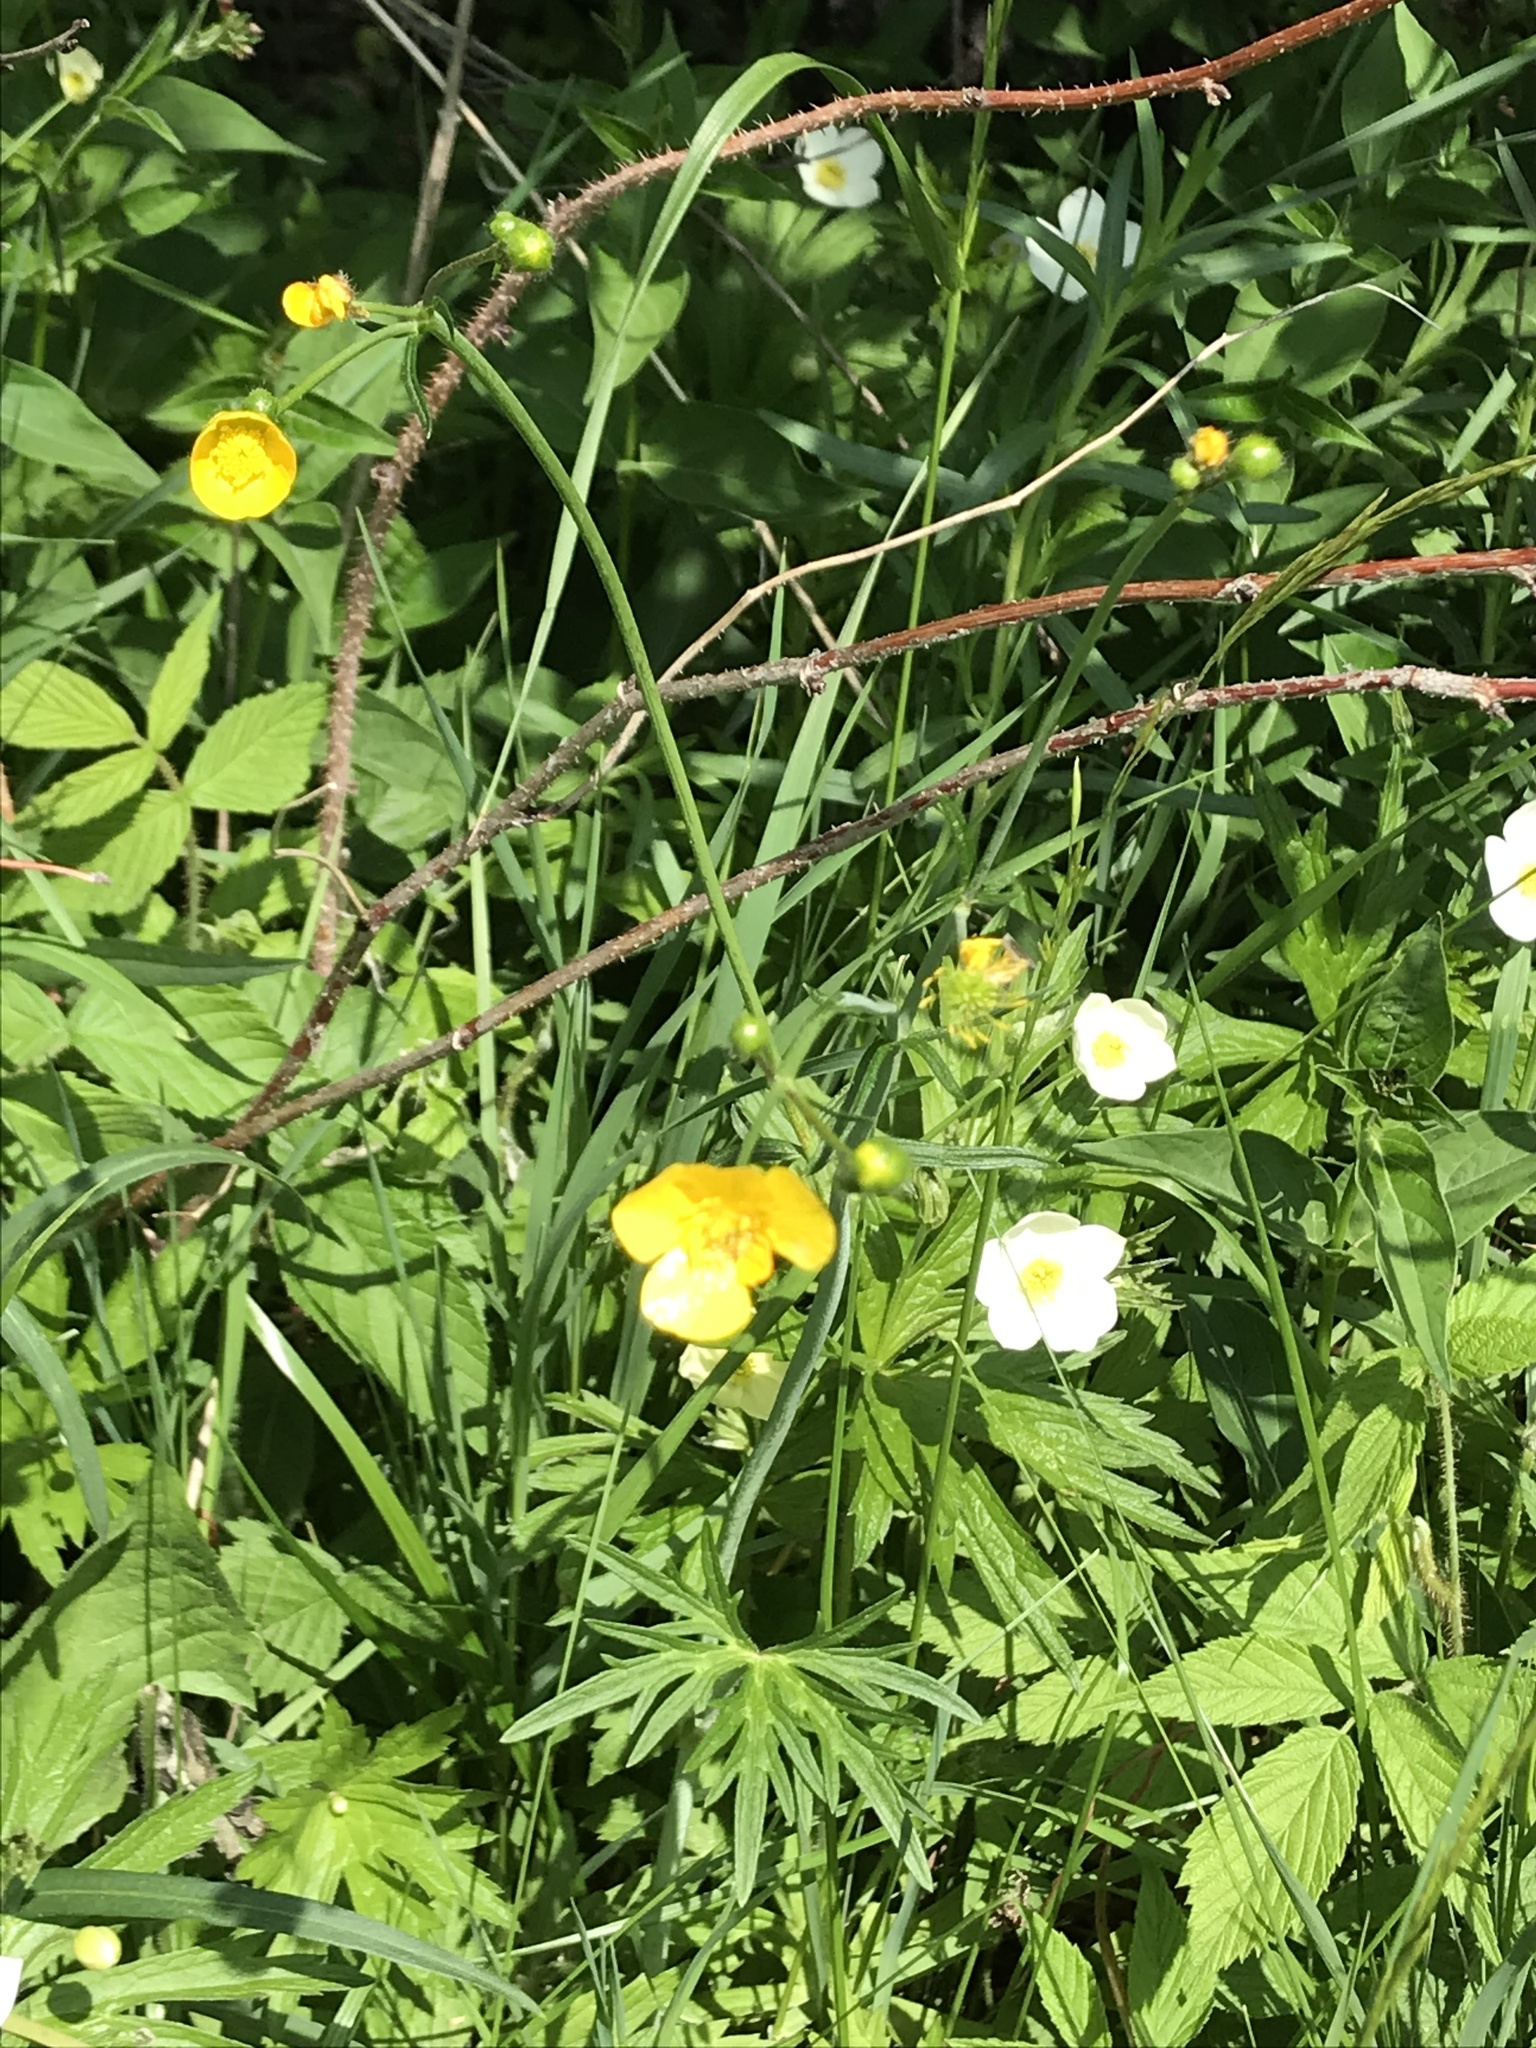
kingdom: Plantae
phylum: Tracheophyta
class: Magnoliopsida
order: Ranunculales
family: Ranunculaceae
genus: Ranunculus
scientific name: Ranunculus acris
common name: Meadow buttercup
